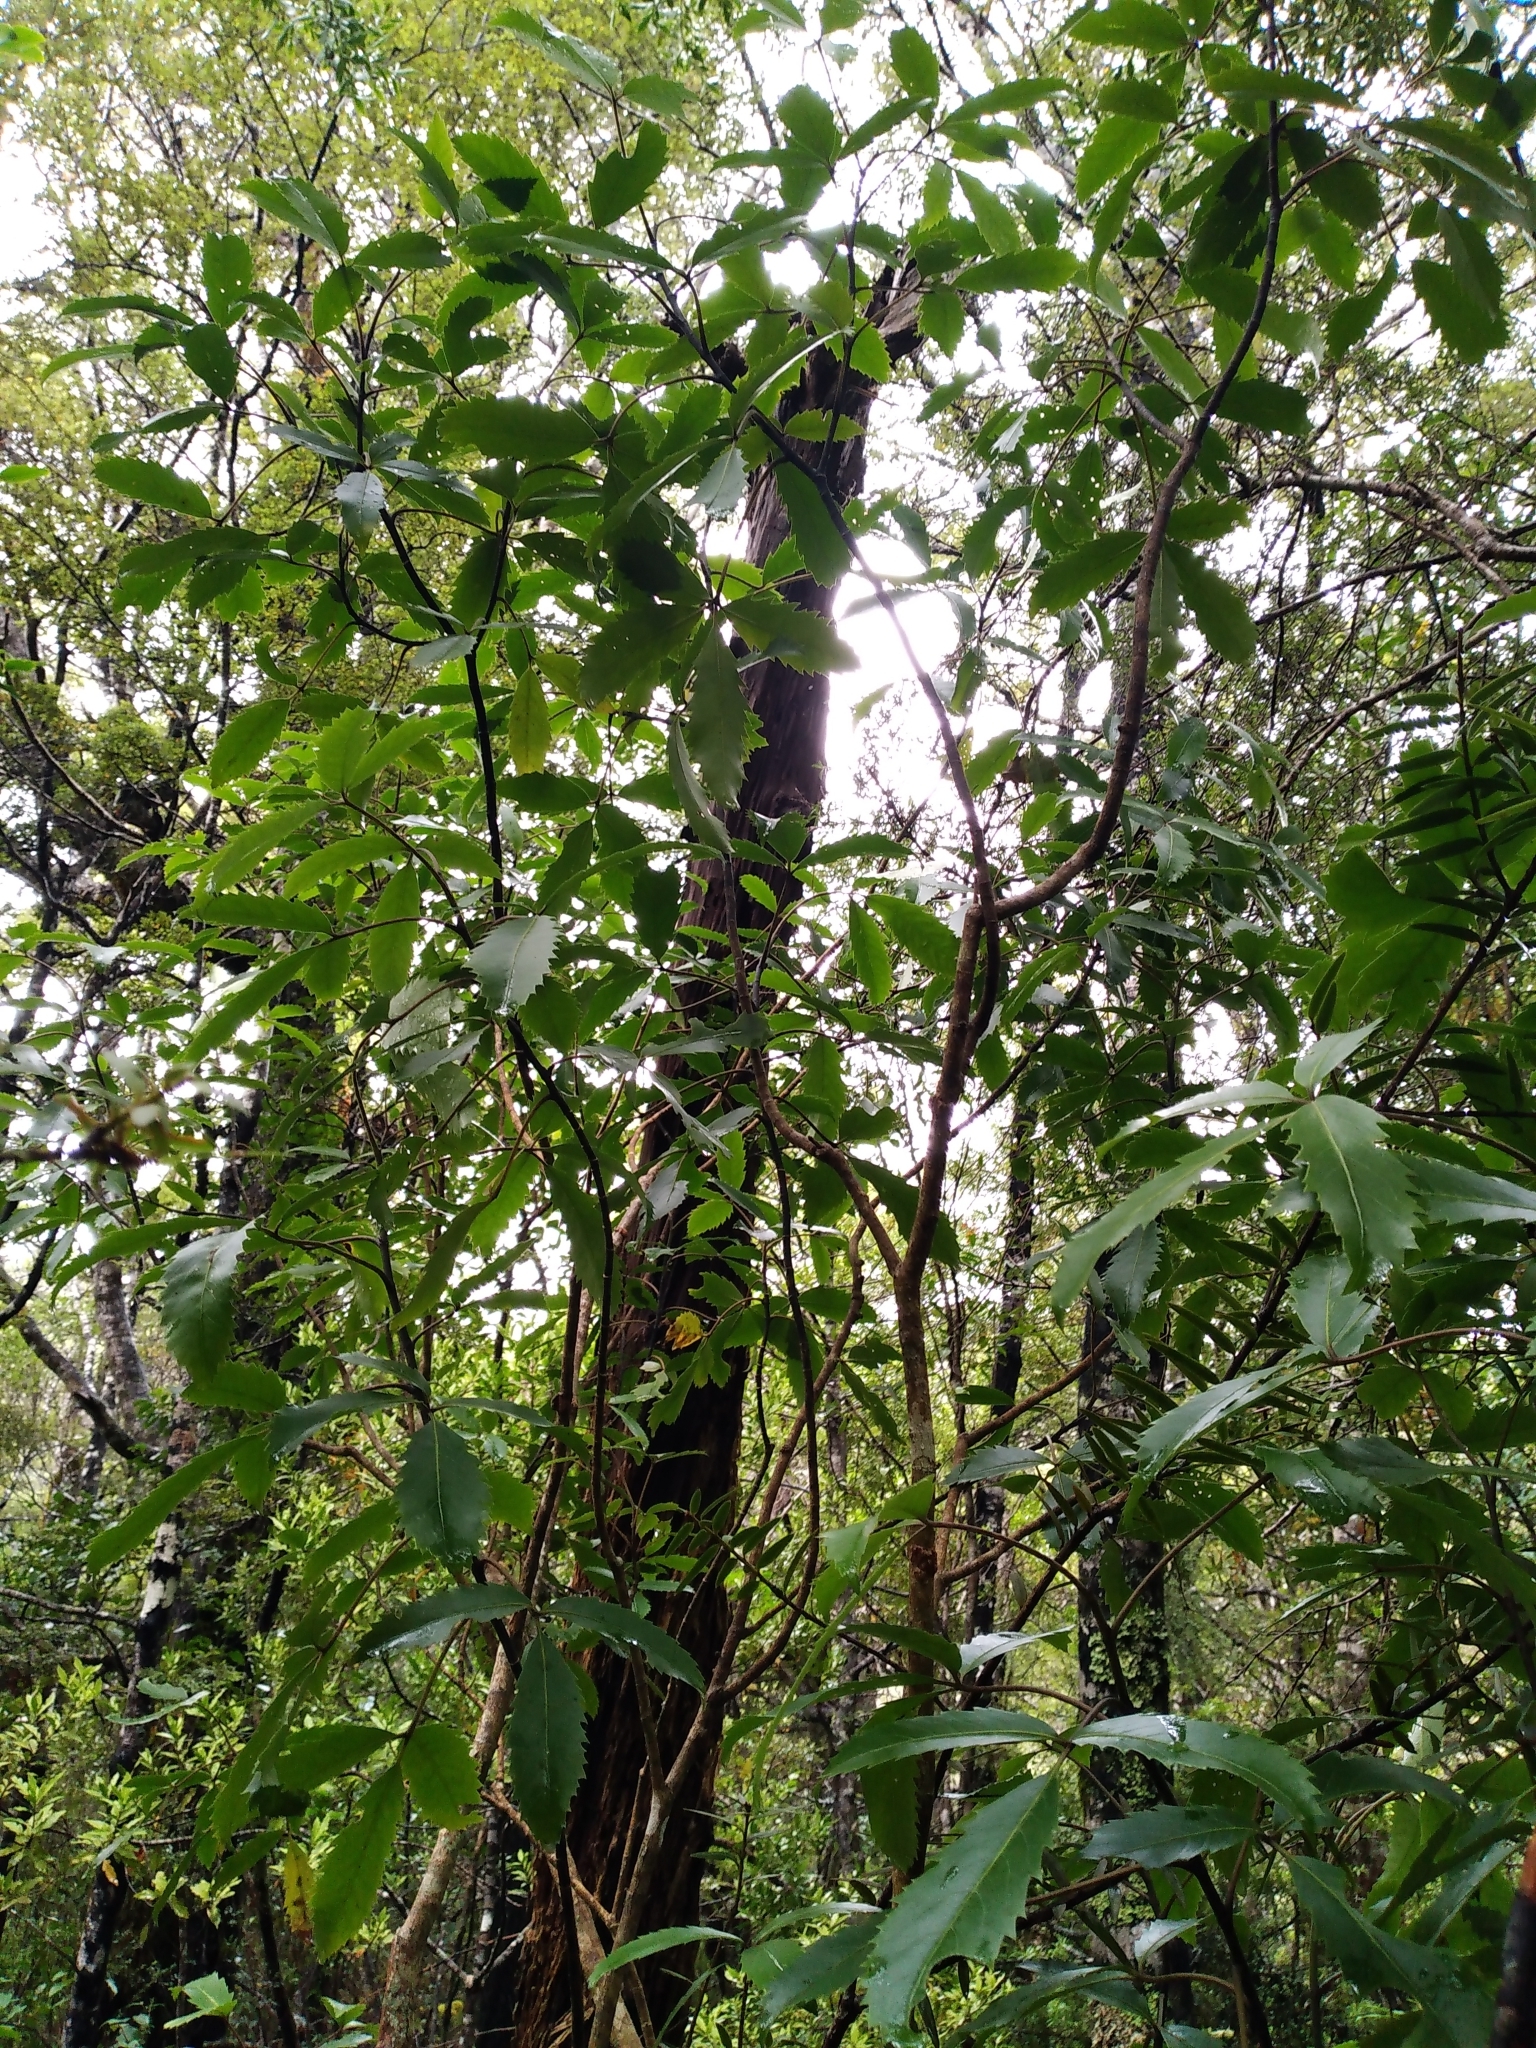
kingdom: Plantae
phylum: Tracheophyta
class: Magnoliopsida
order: Apiales
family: Araliaceae
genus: Neopanax
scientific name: Neopanax macintyrei
